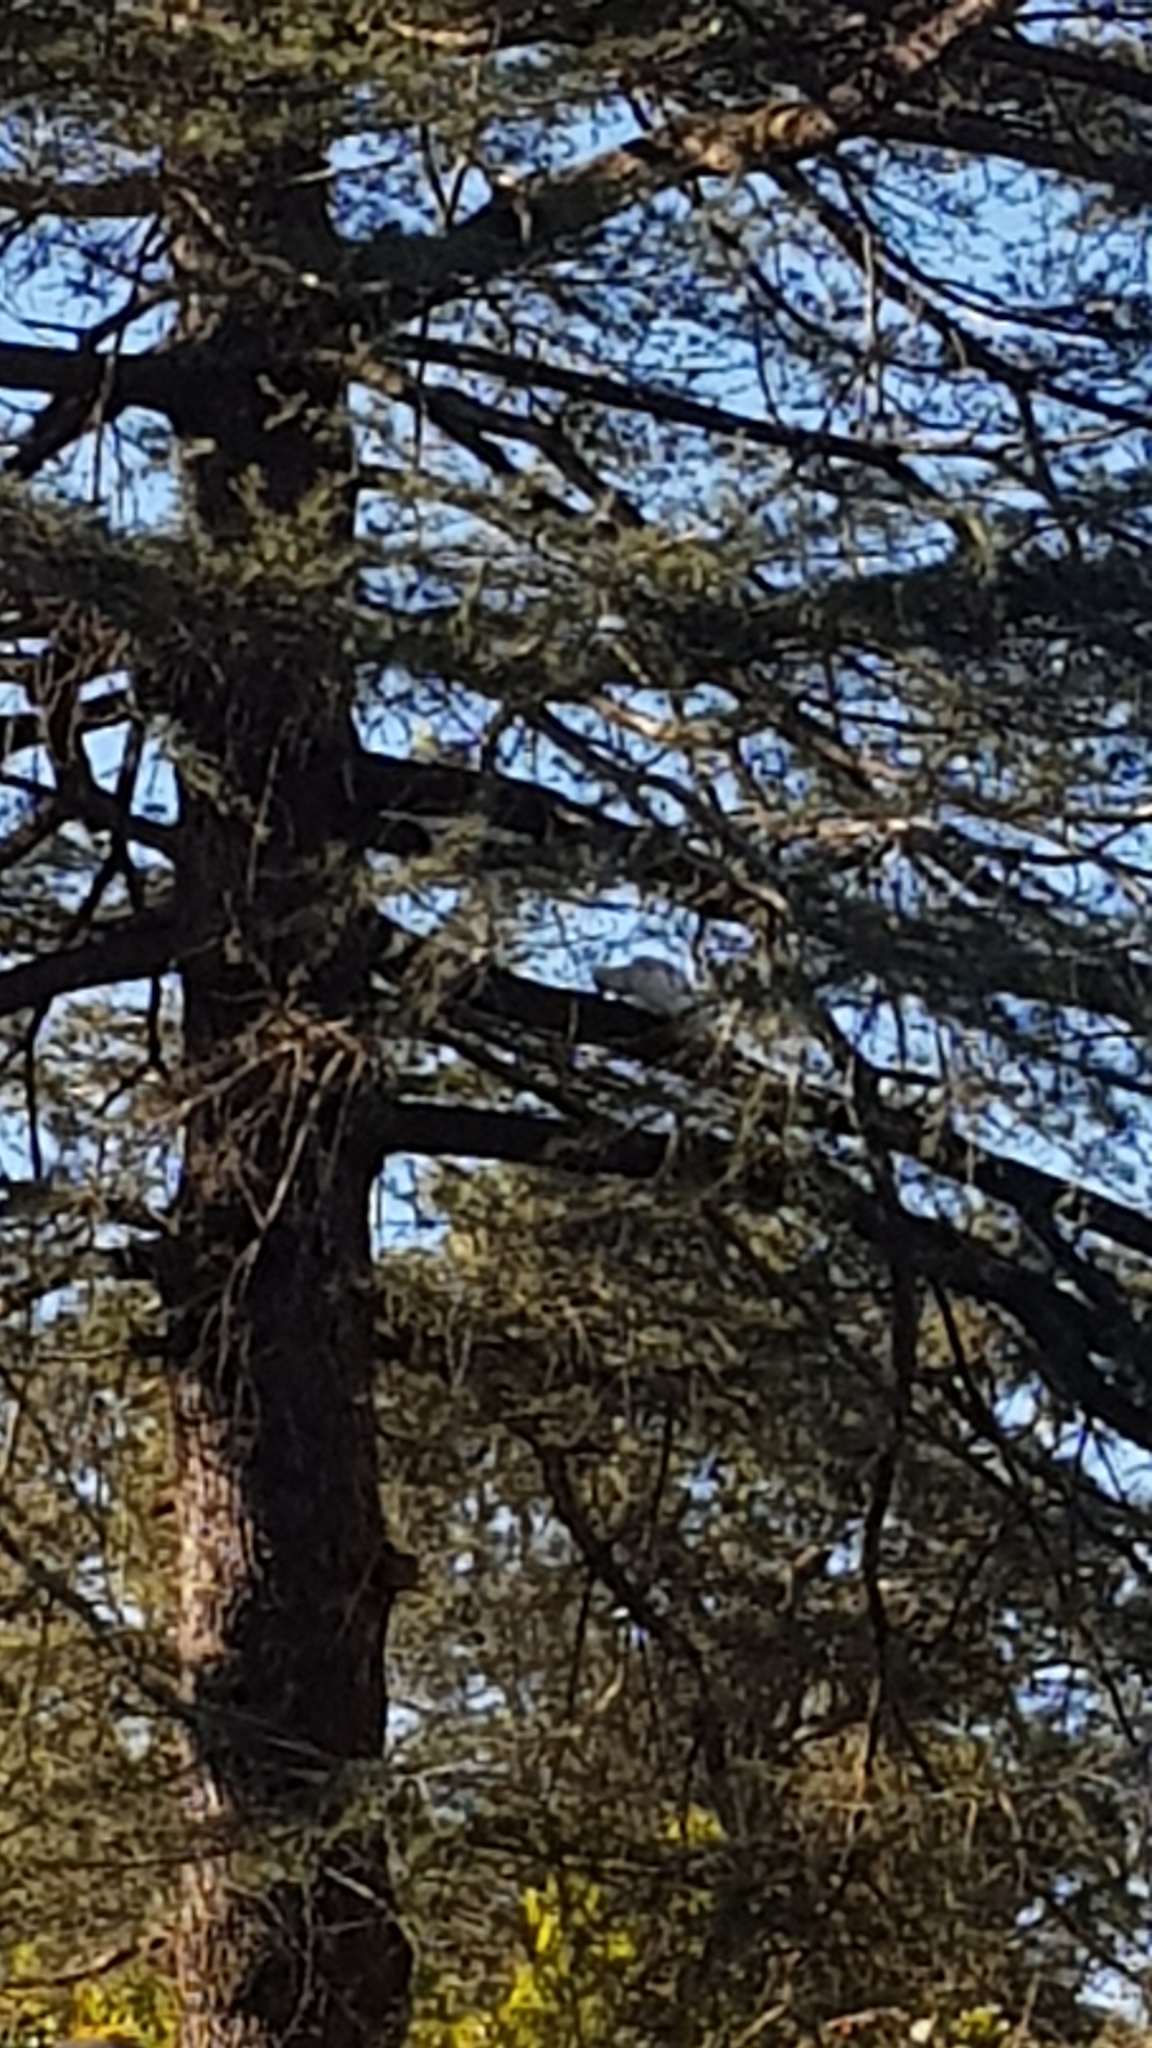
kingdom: Animalia
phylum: Chordata
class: Aves
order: Psittaciformes
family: Psittacidae
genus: Cacatua
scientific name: Cacatua galerita
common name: Sulphur-crested cockatoo
